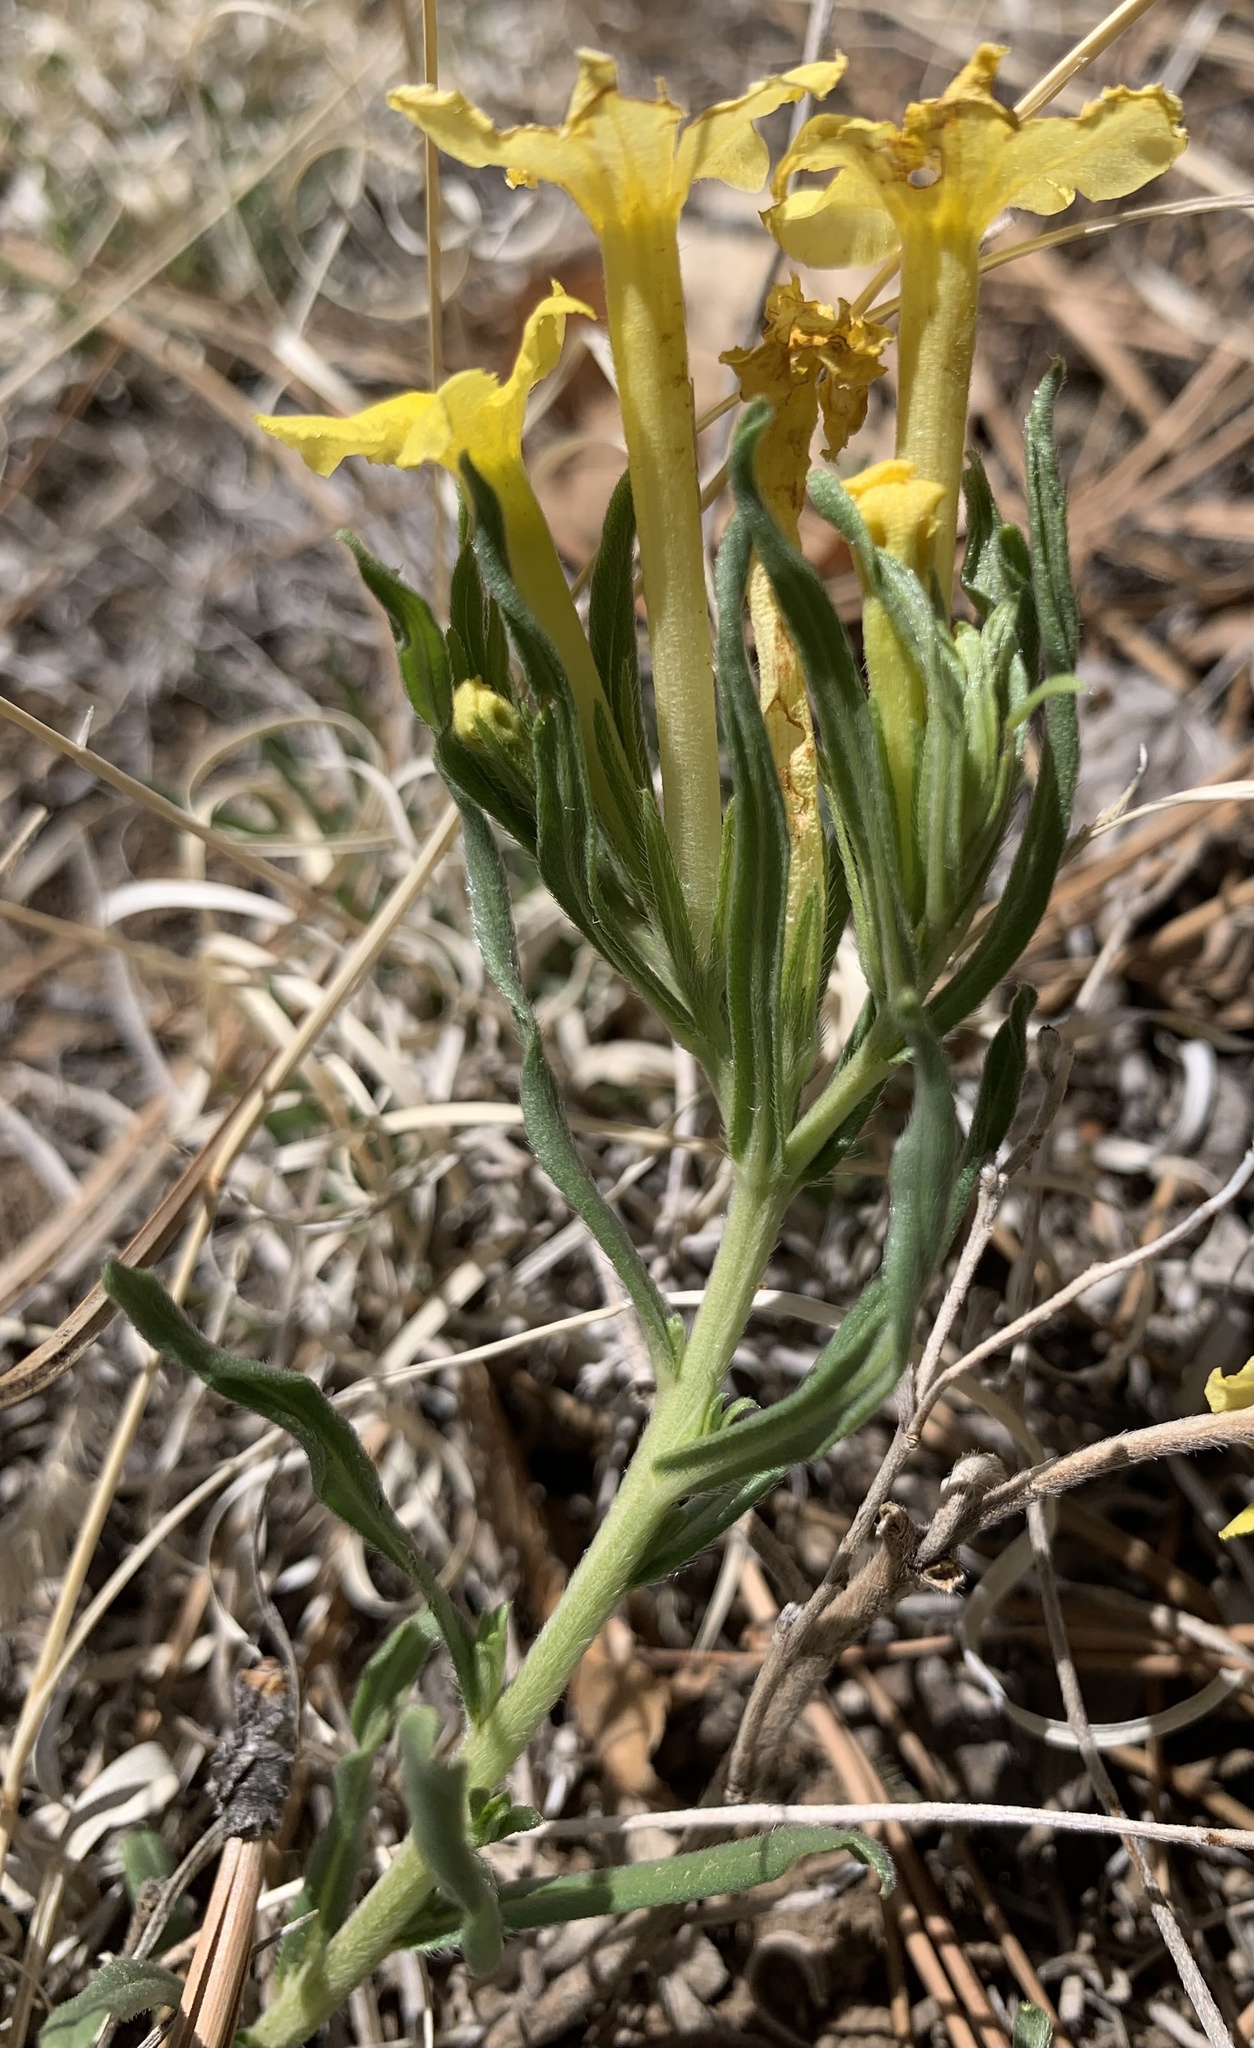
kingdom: Plantae
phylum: Tracheophyta
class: Magnoliopsida
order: Boraginales
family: Boraginaceae
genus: Lithospermum
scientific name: Lithospermum incisum
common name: Fringed gromwell
